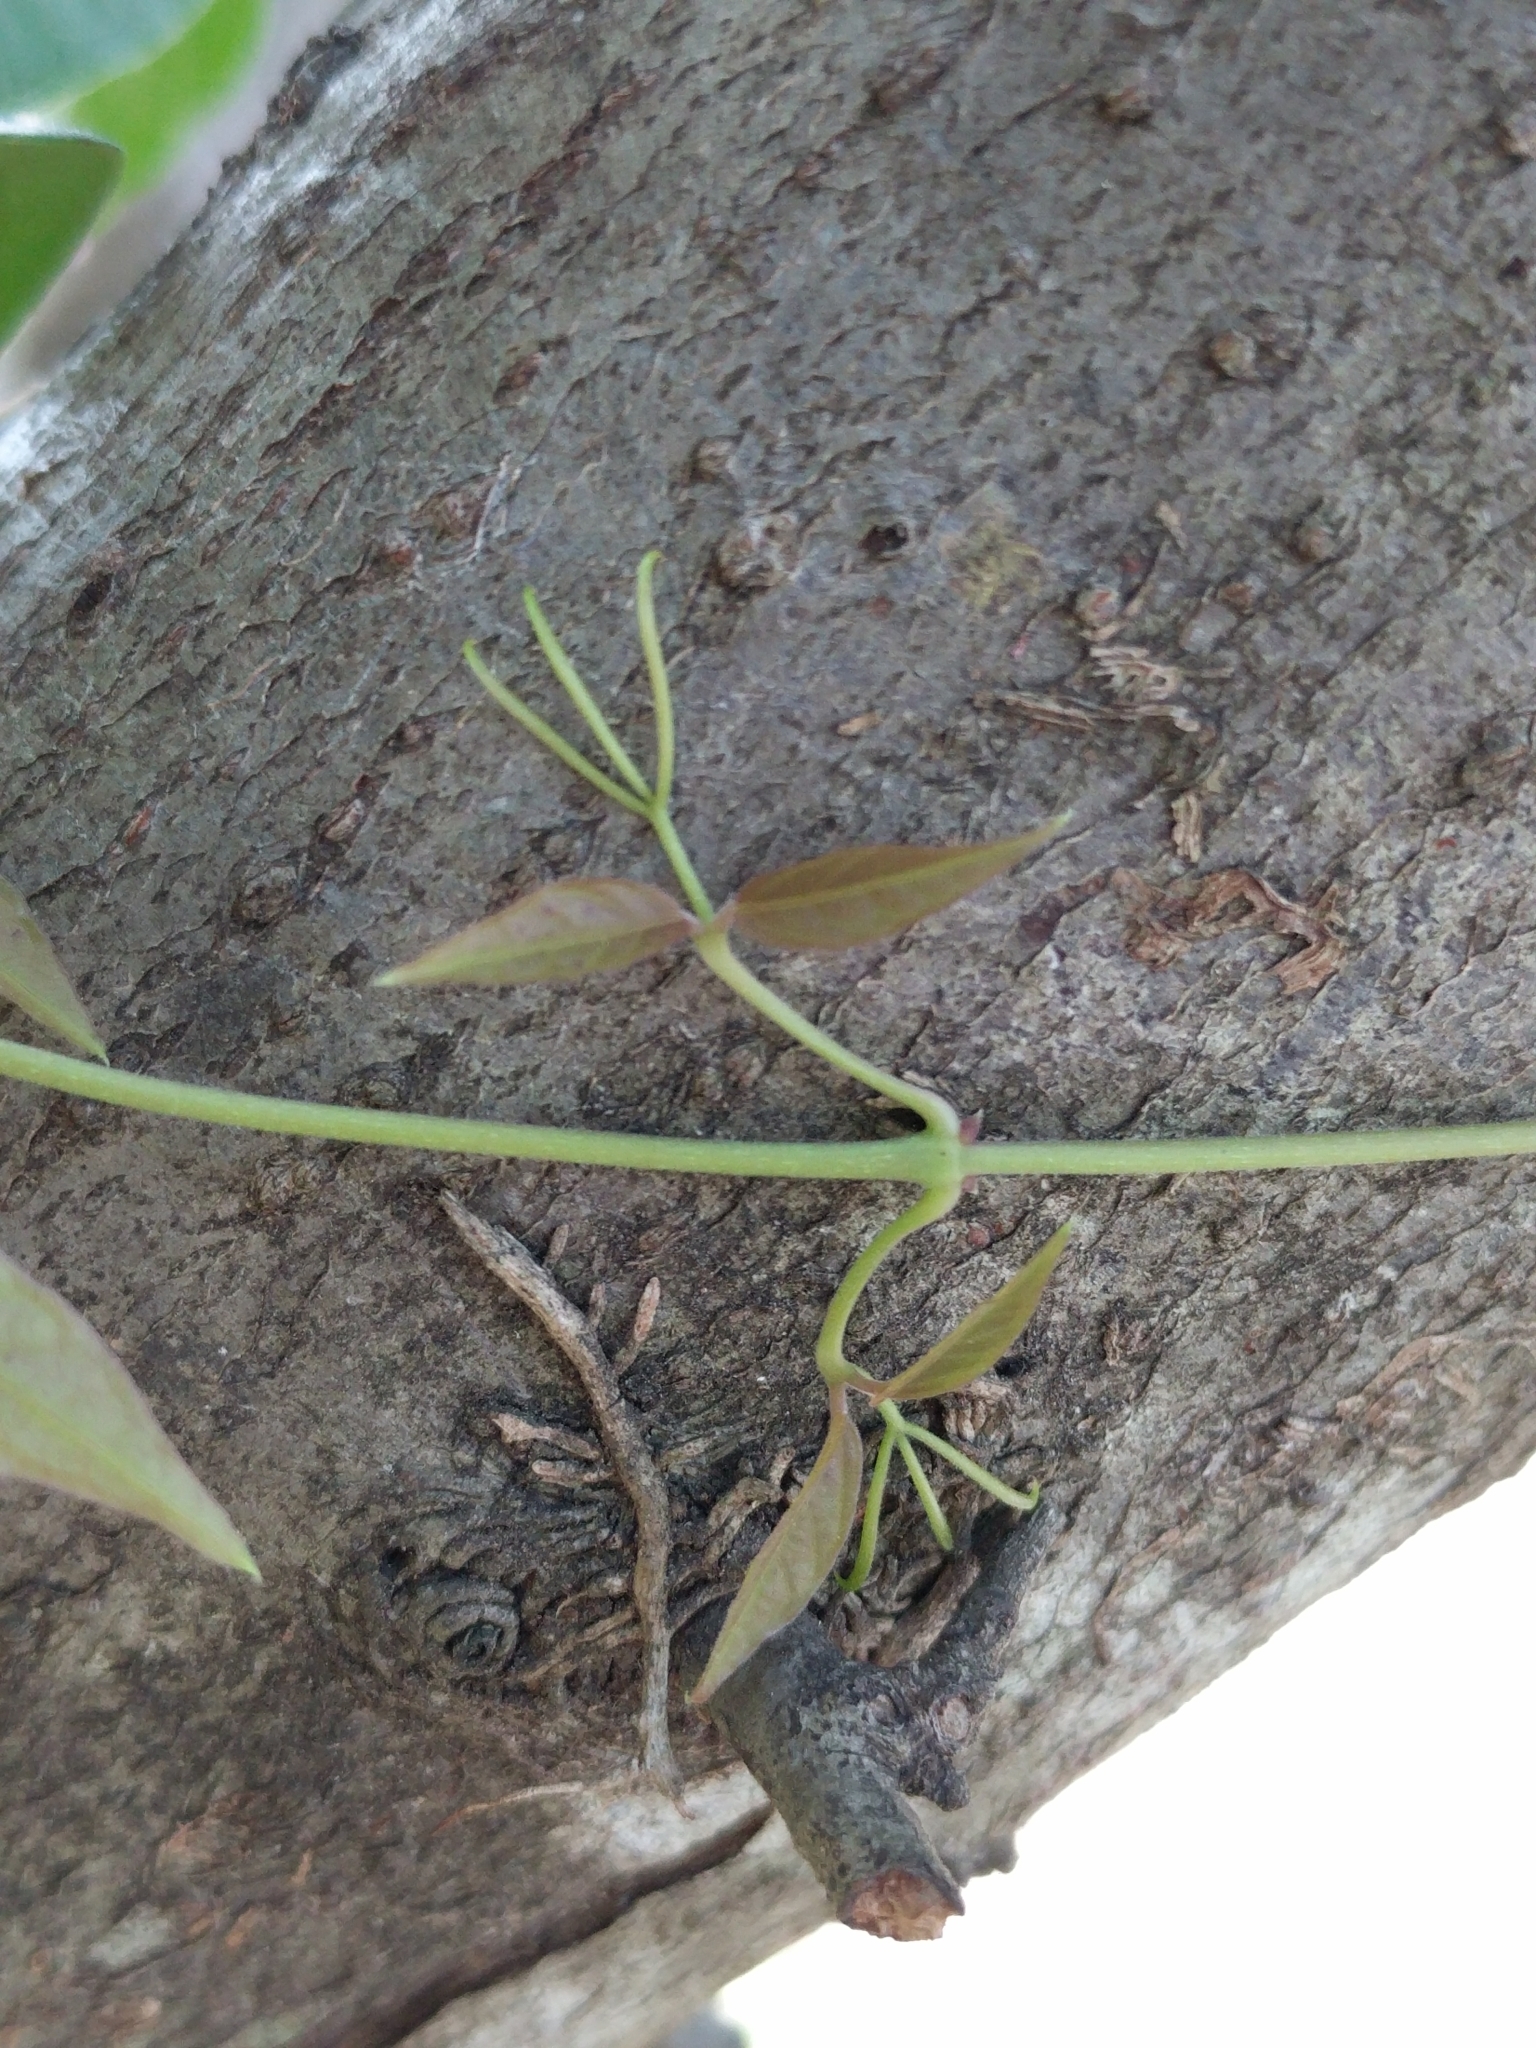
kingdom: Plantae
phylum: Tracheophyta
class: Magnoliopsida
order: Lamiales
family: Bignoniaceae
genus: Dolichandra
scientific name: Dolichandra unguis-cati
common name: Catclaw vine
